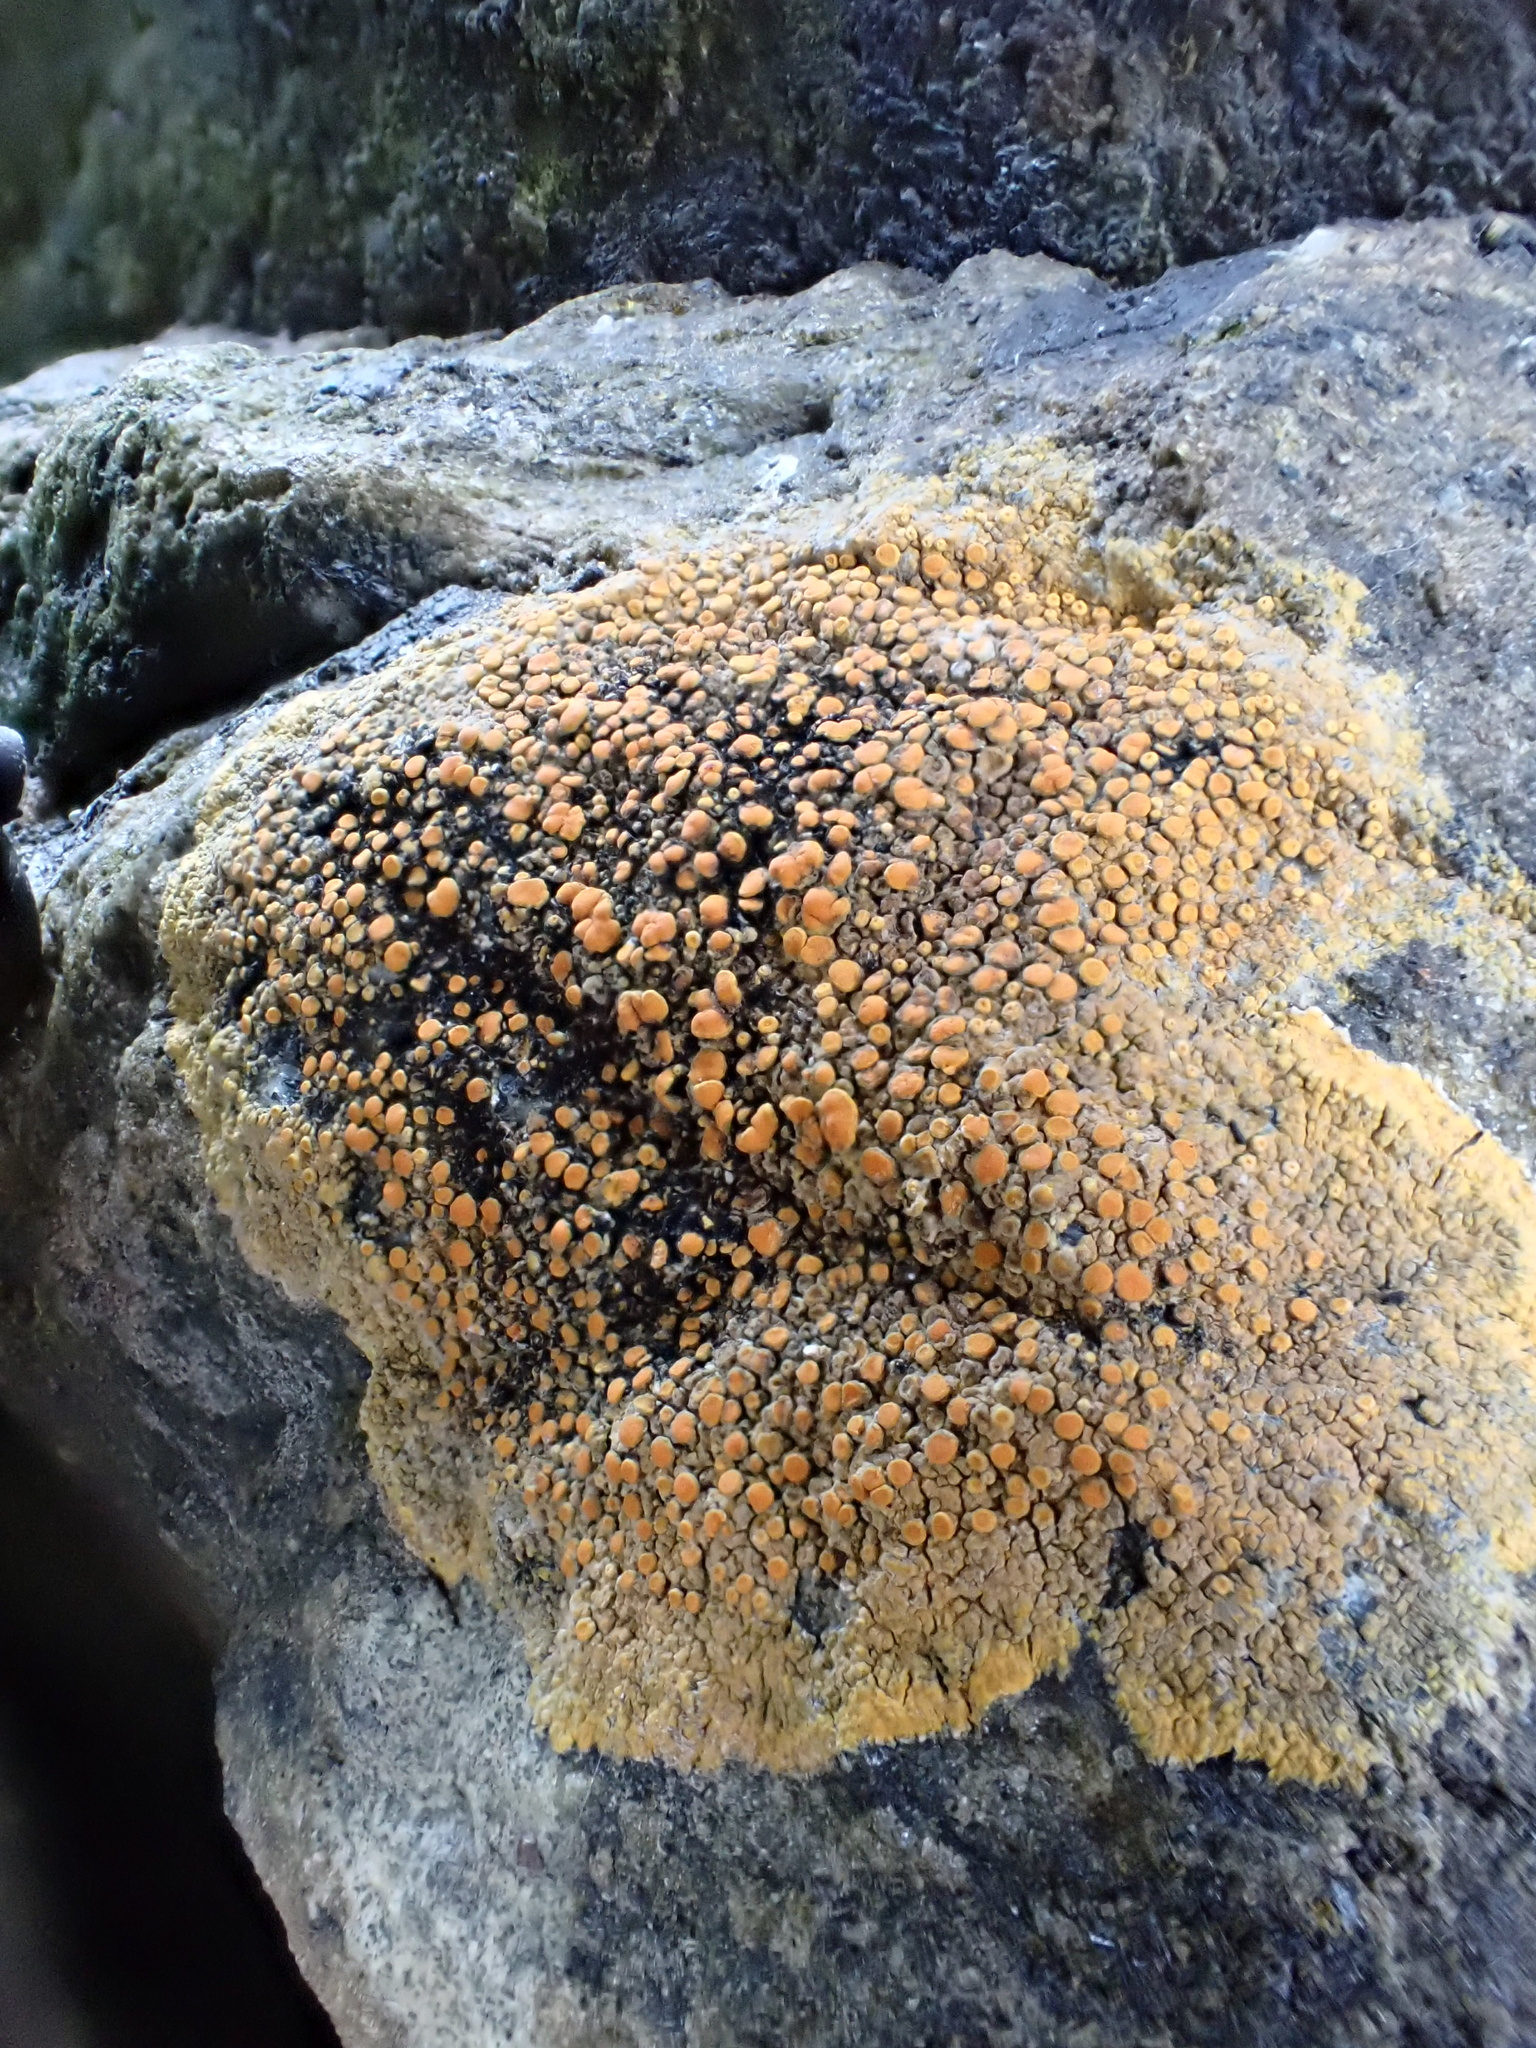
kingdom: Fungi
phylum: Ascomycota
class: Lecanoromycetes
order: Teloschistales
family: Teloschistaceae
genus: Flavoplaca
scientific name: Flavoplaca marina
